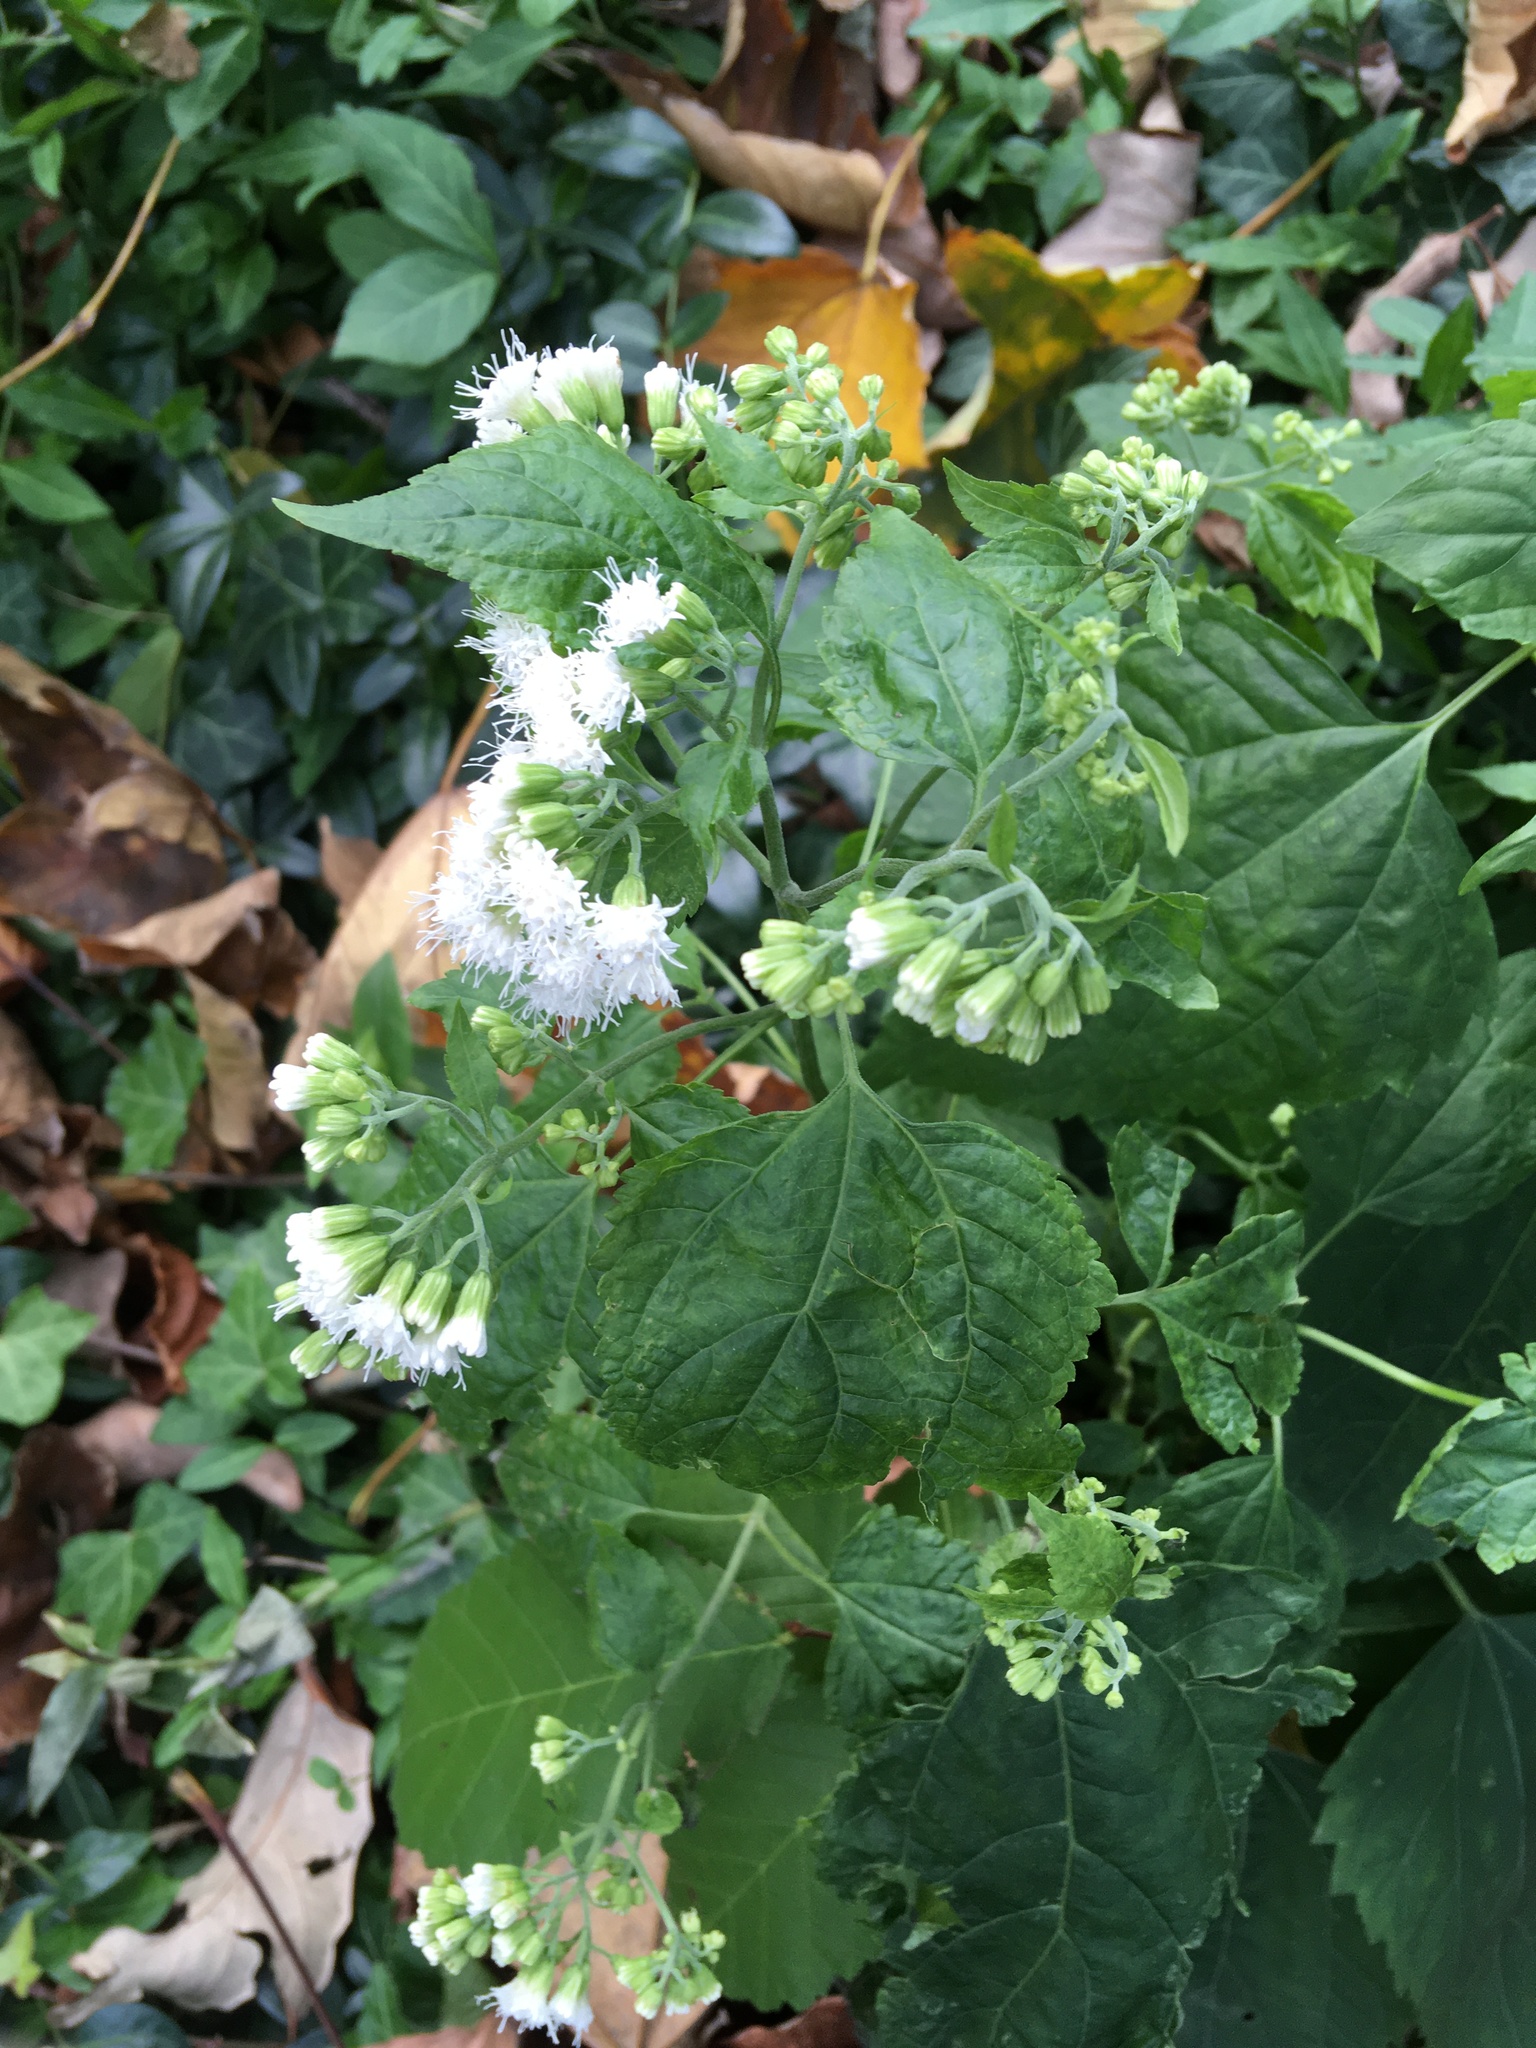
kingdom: Plantae
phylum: Tracheophyta
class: Magnoliopsida
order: Asterales
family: Asteraceae
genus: Ageratina
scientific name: Ageratina altissima
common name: White snakeroot
